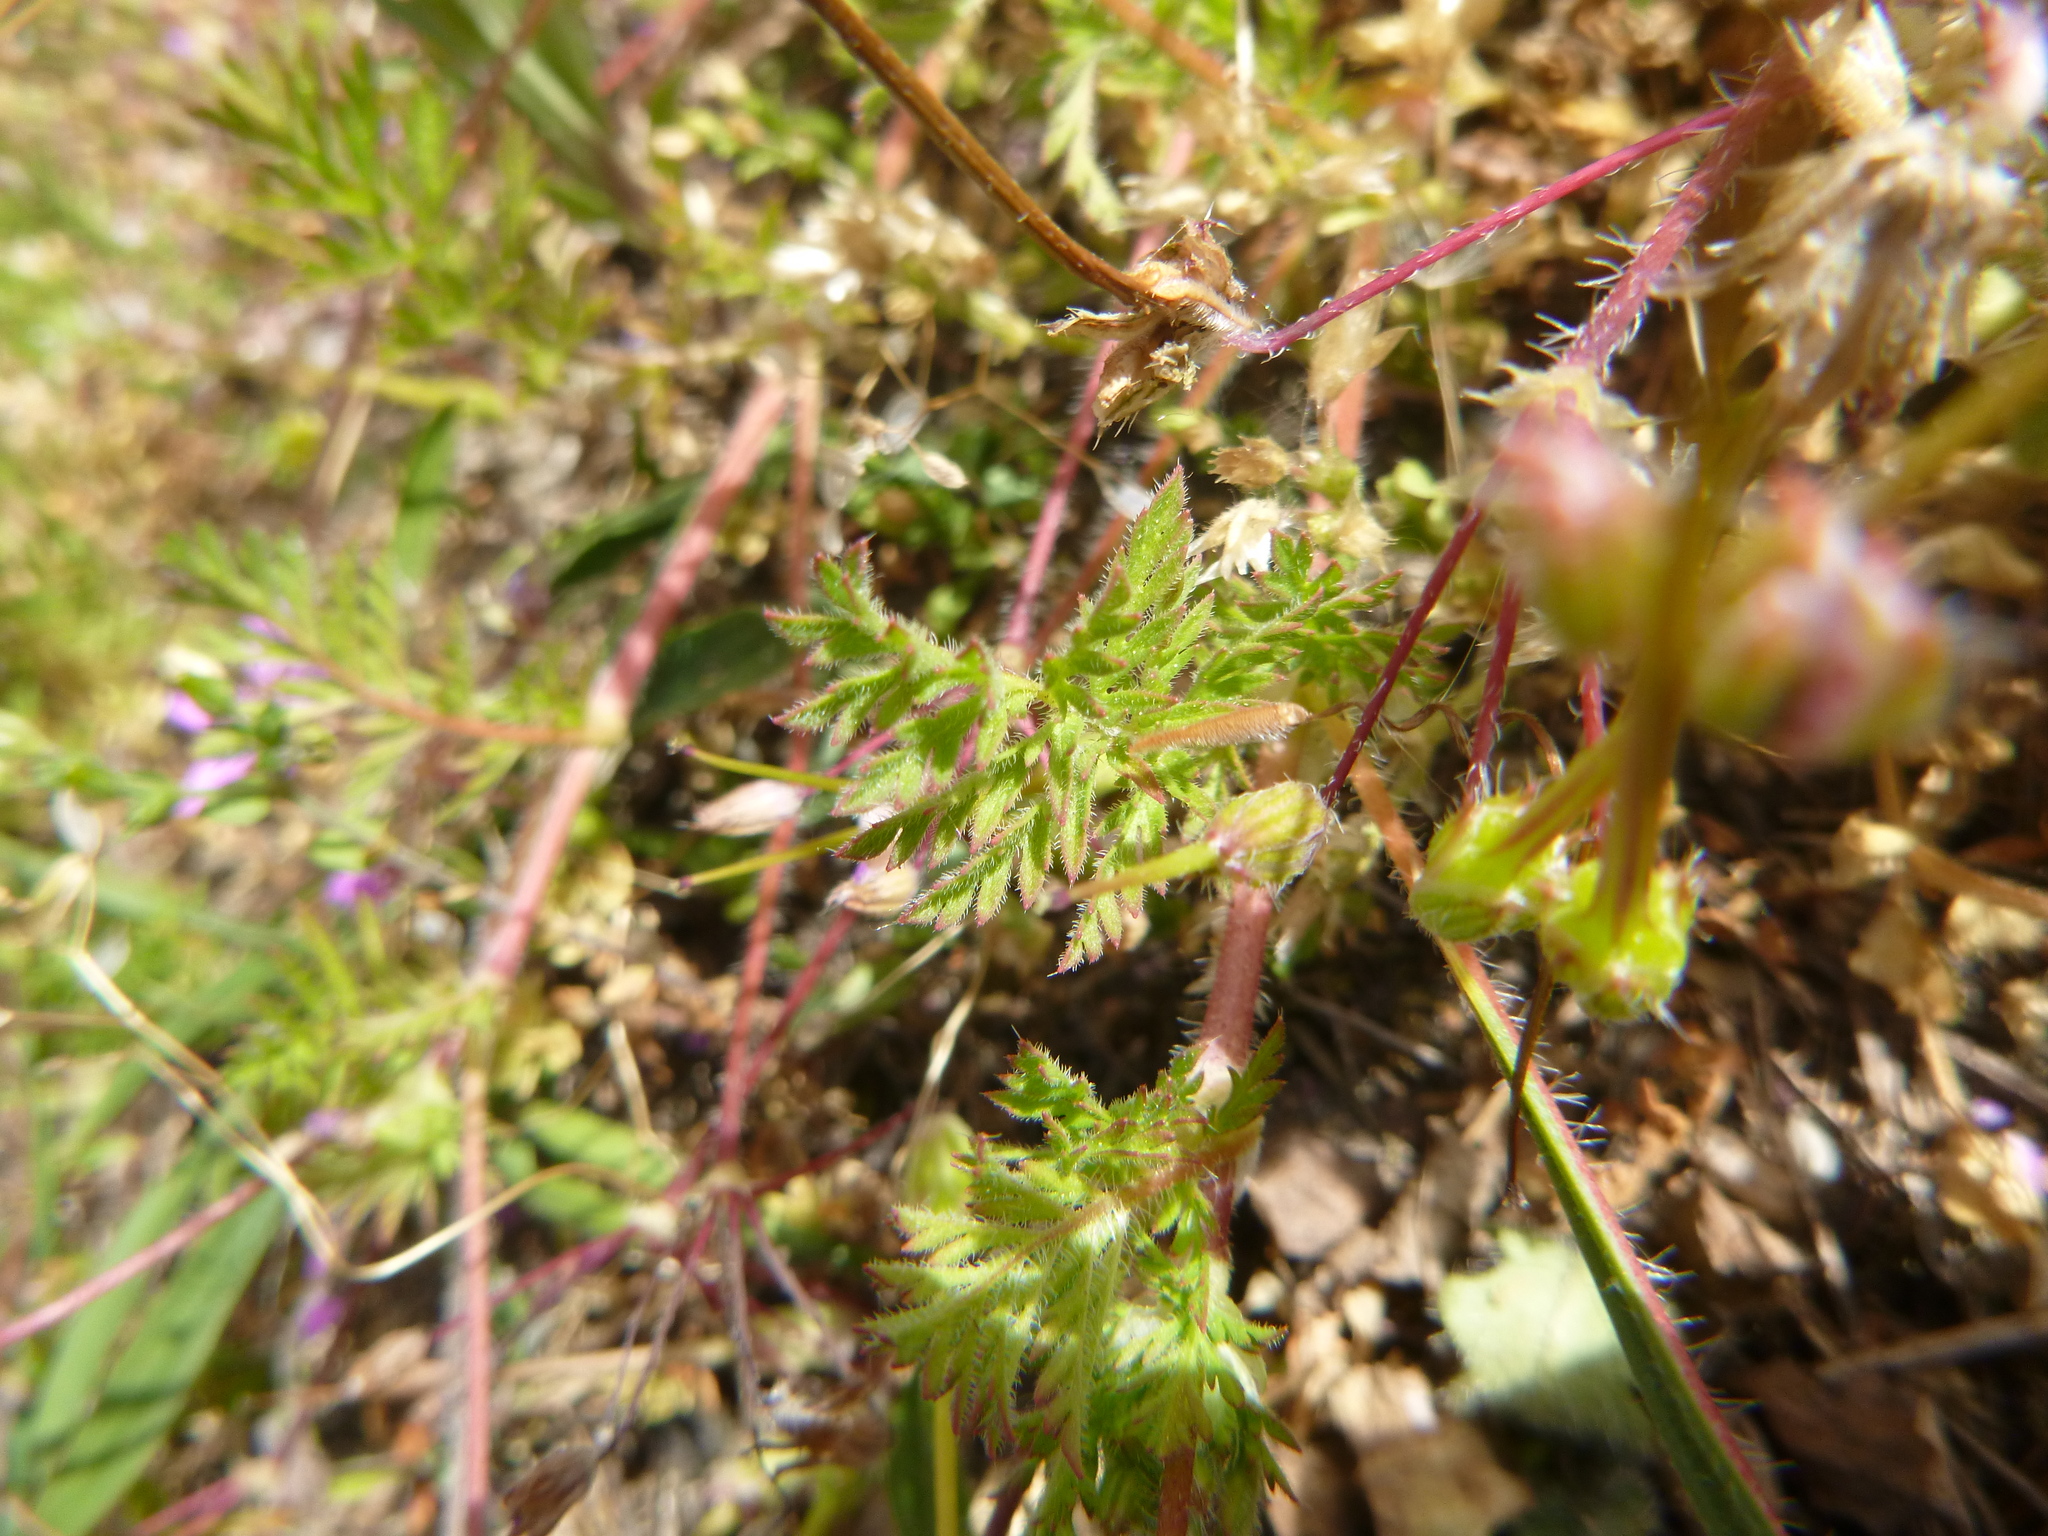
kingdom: Plantae
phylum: Tracheophyta
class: Magnoliopsida
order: Geraniales
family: Geraniaceae
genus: Erodium
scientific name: Erodium cicutarium
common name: Common stork's-bill
